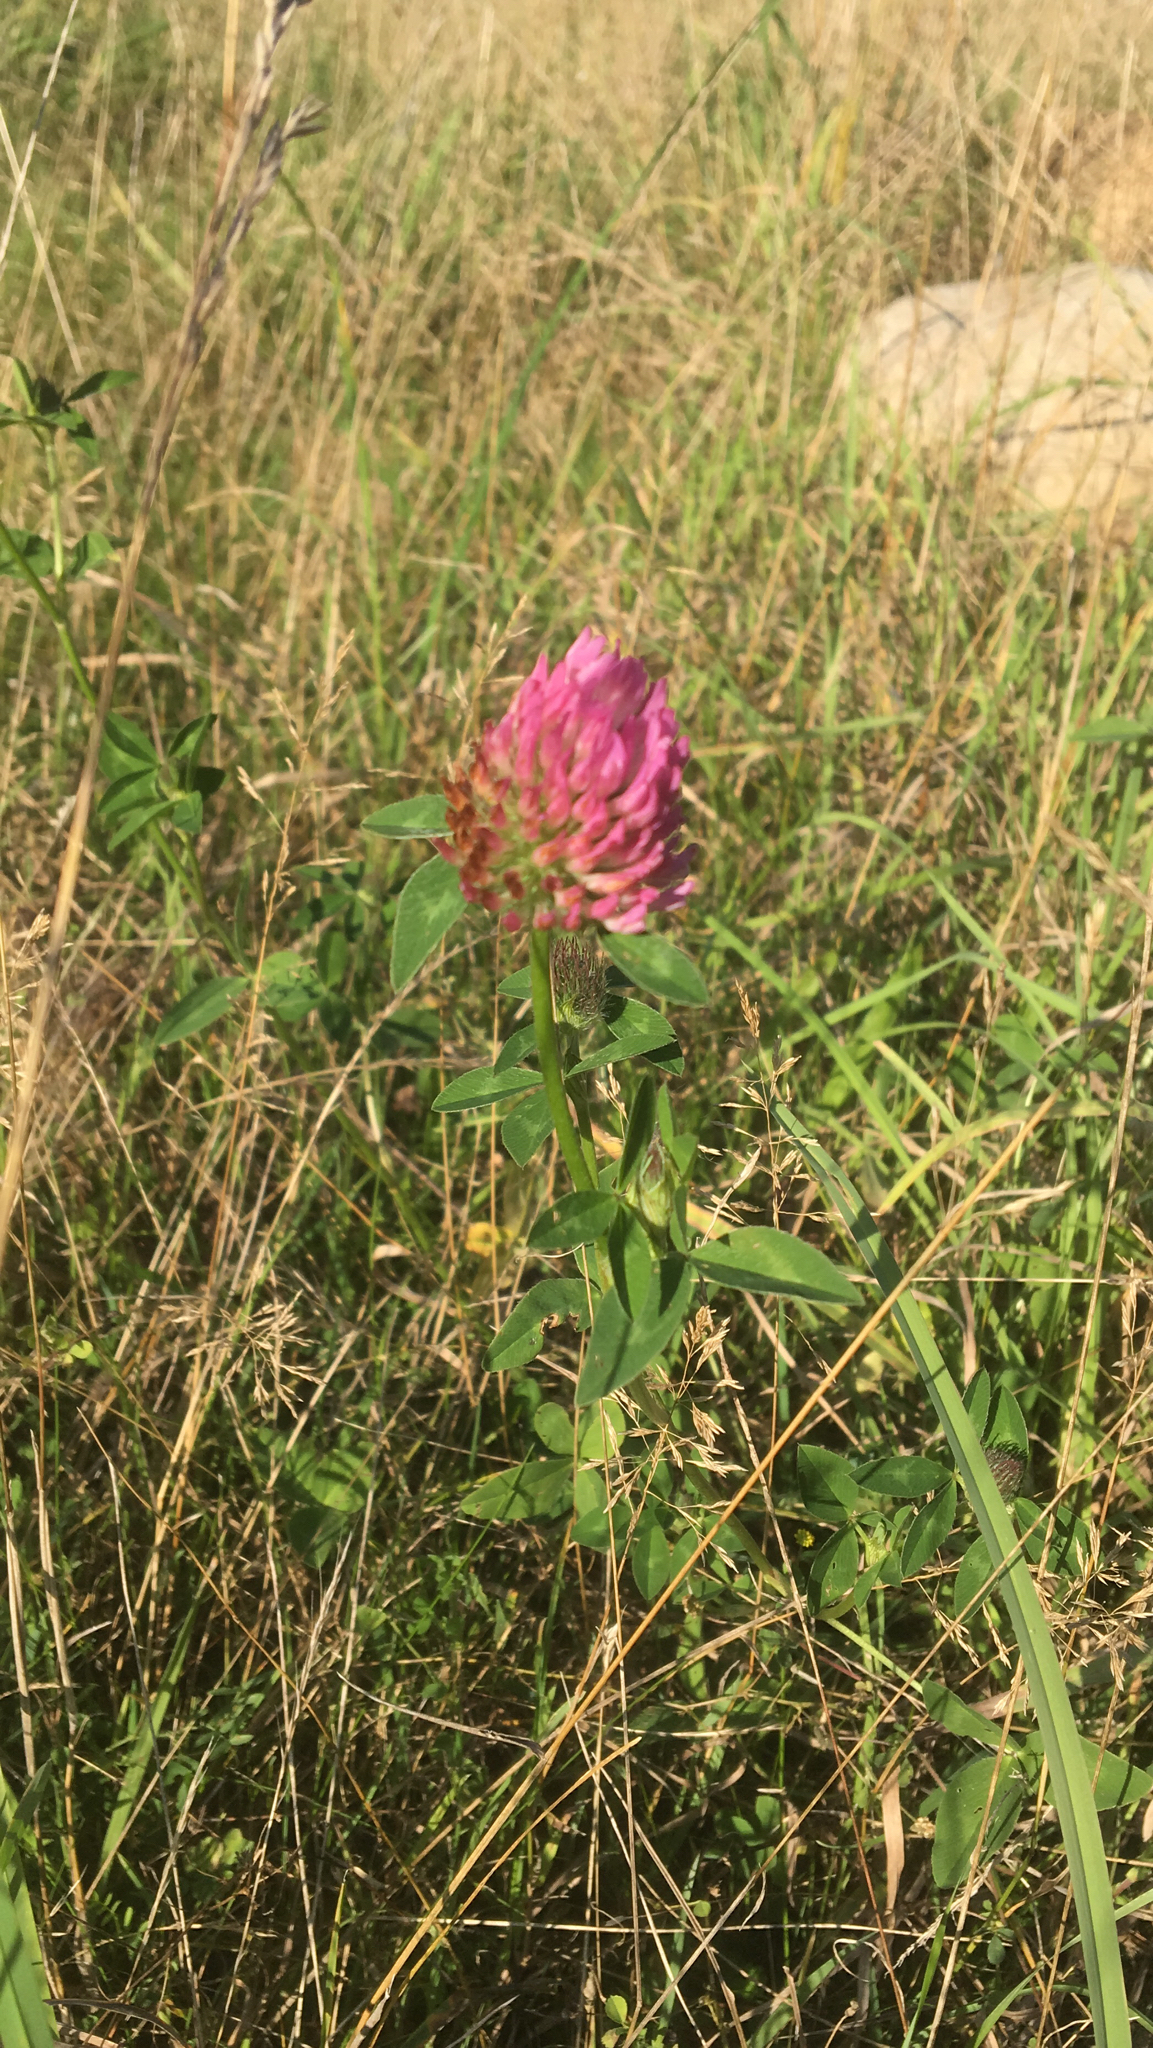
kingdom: Plantae
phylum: Tracheophyta
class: Magnoliopsida
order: Fabales
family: Fabaceae
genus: Trifolium
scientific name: Trifolium pratense
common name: Red clover
